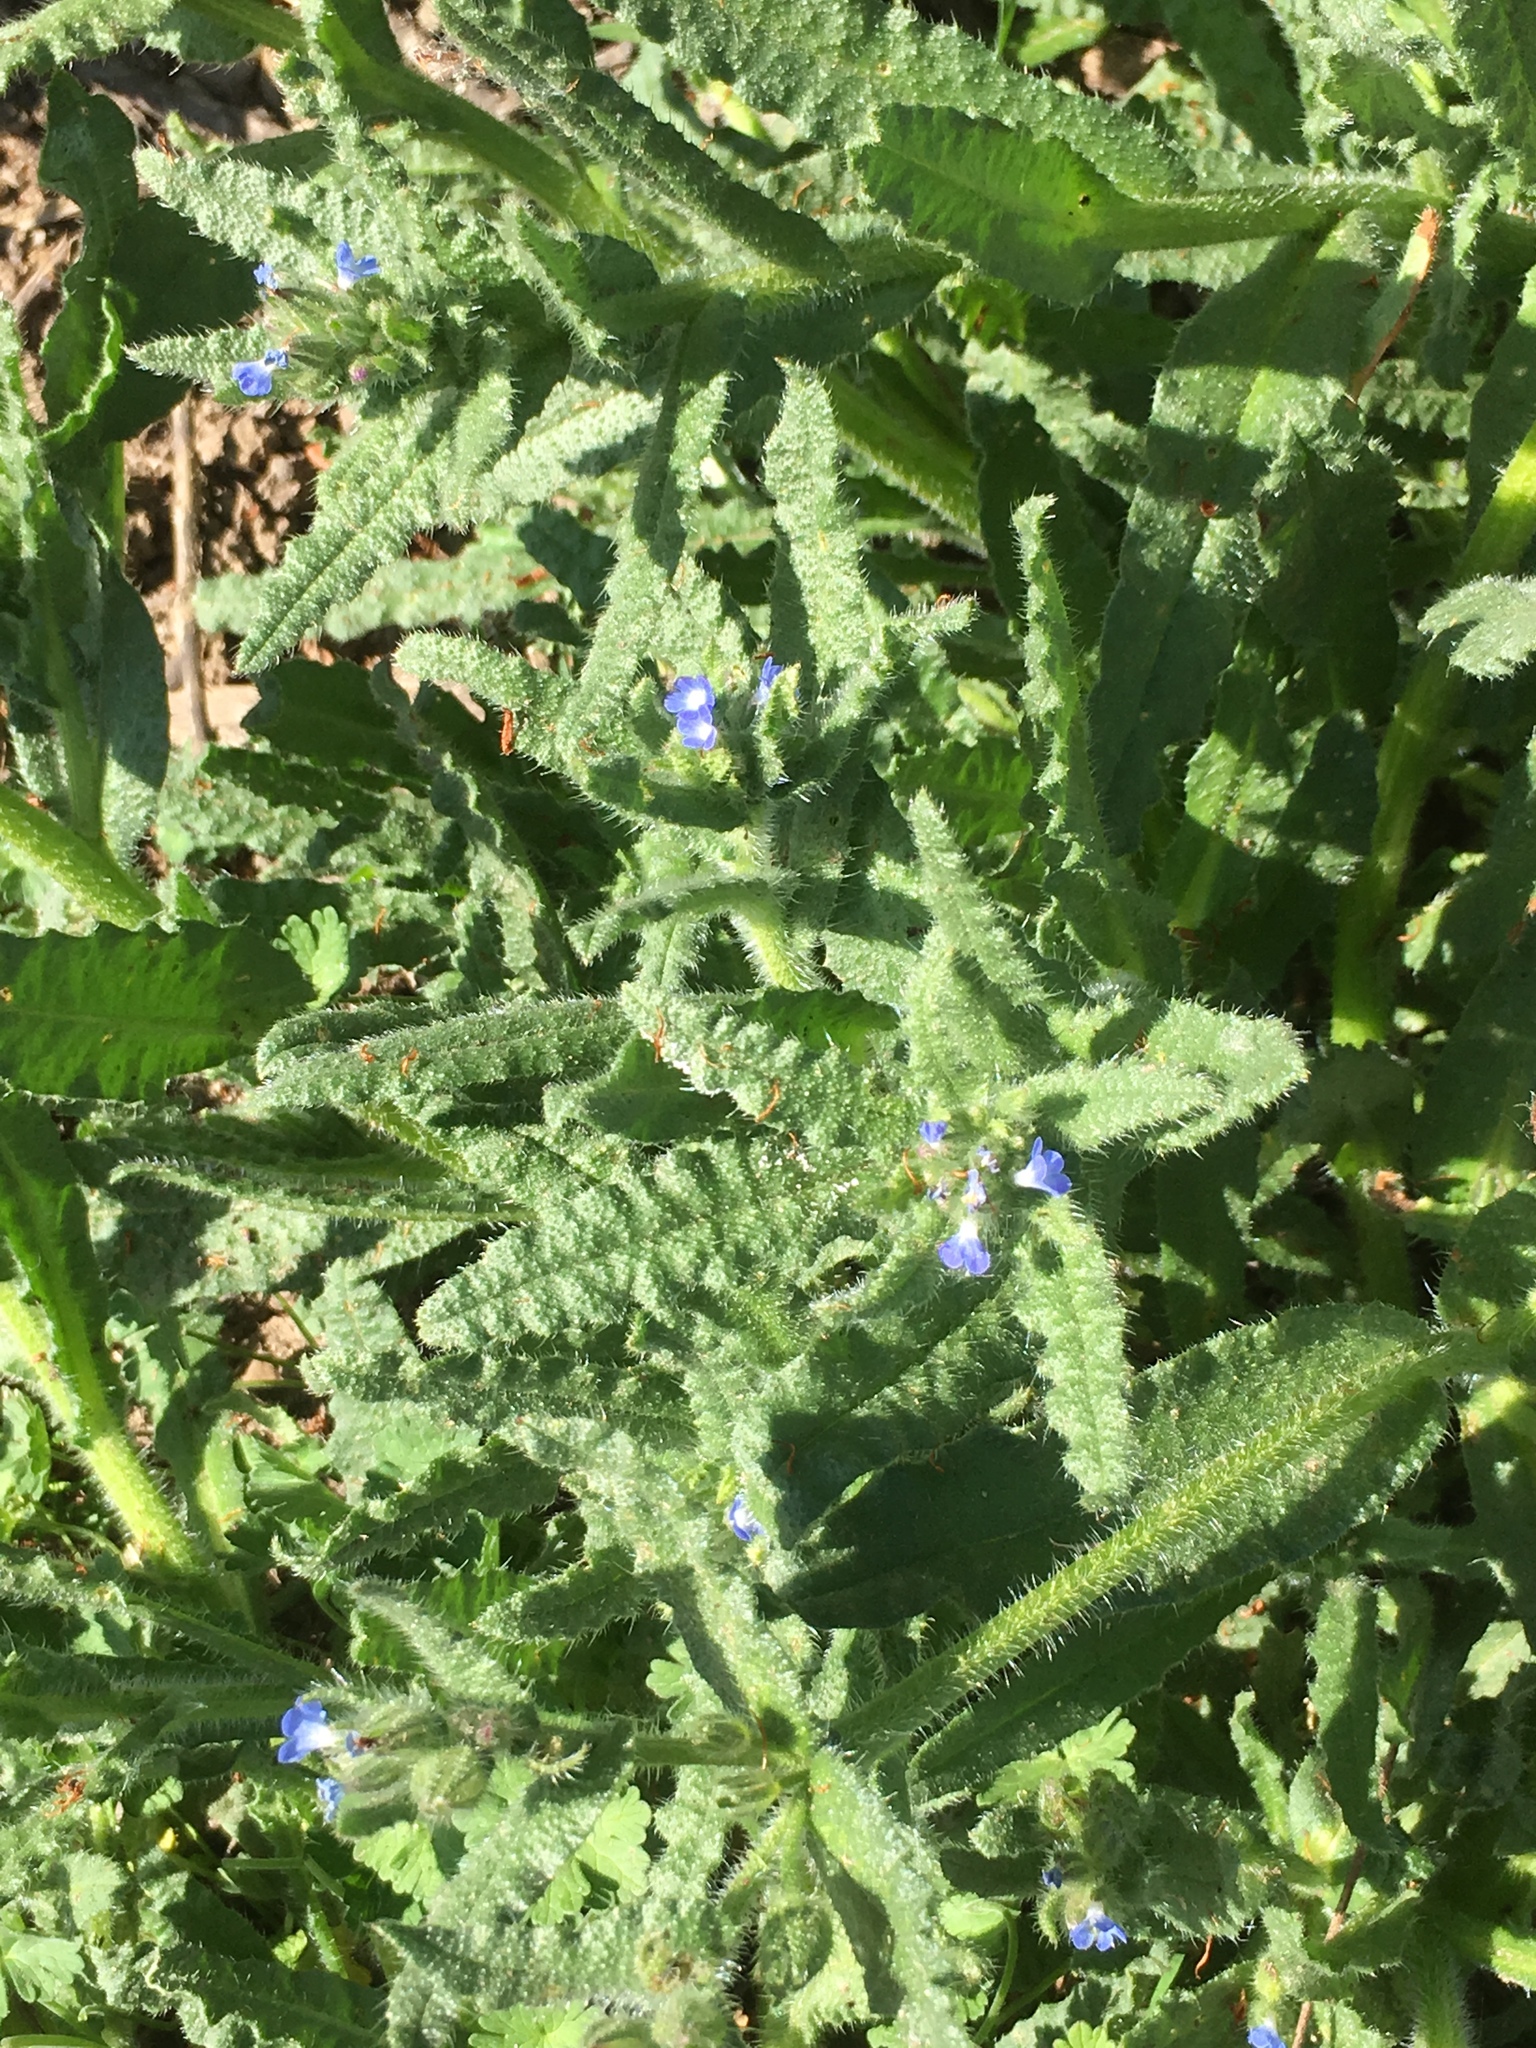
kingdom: Plantae
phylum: Tracheophyta
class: Magnoliopsida
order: Boraginales
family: Boraginaceae
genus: Lycopsis
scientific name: Lycopsis arvensis
